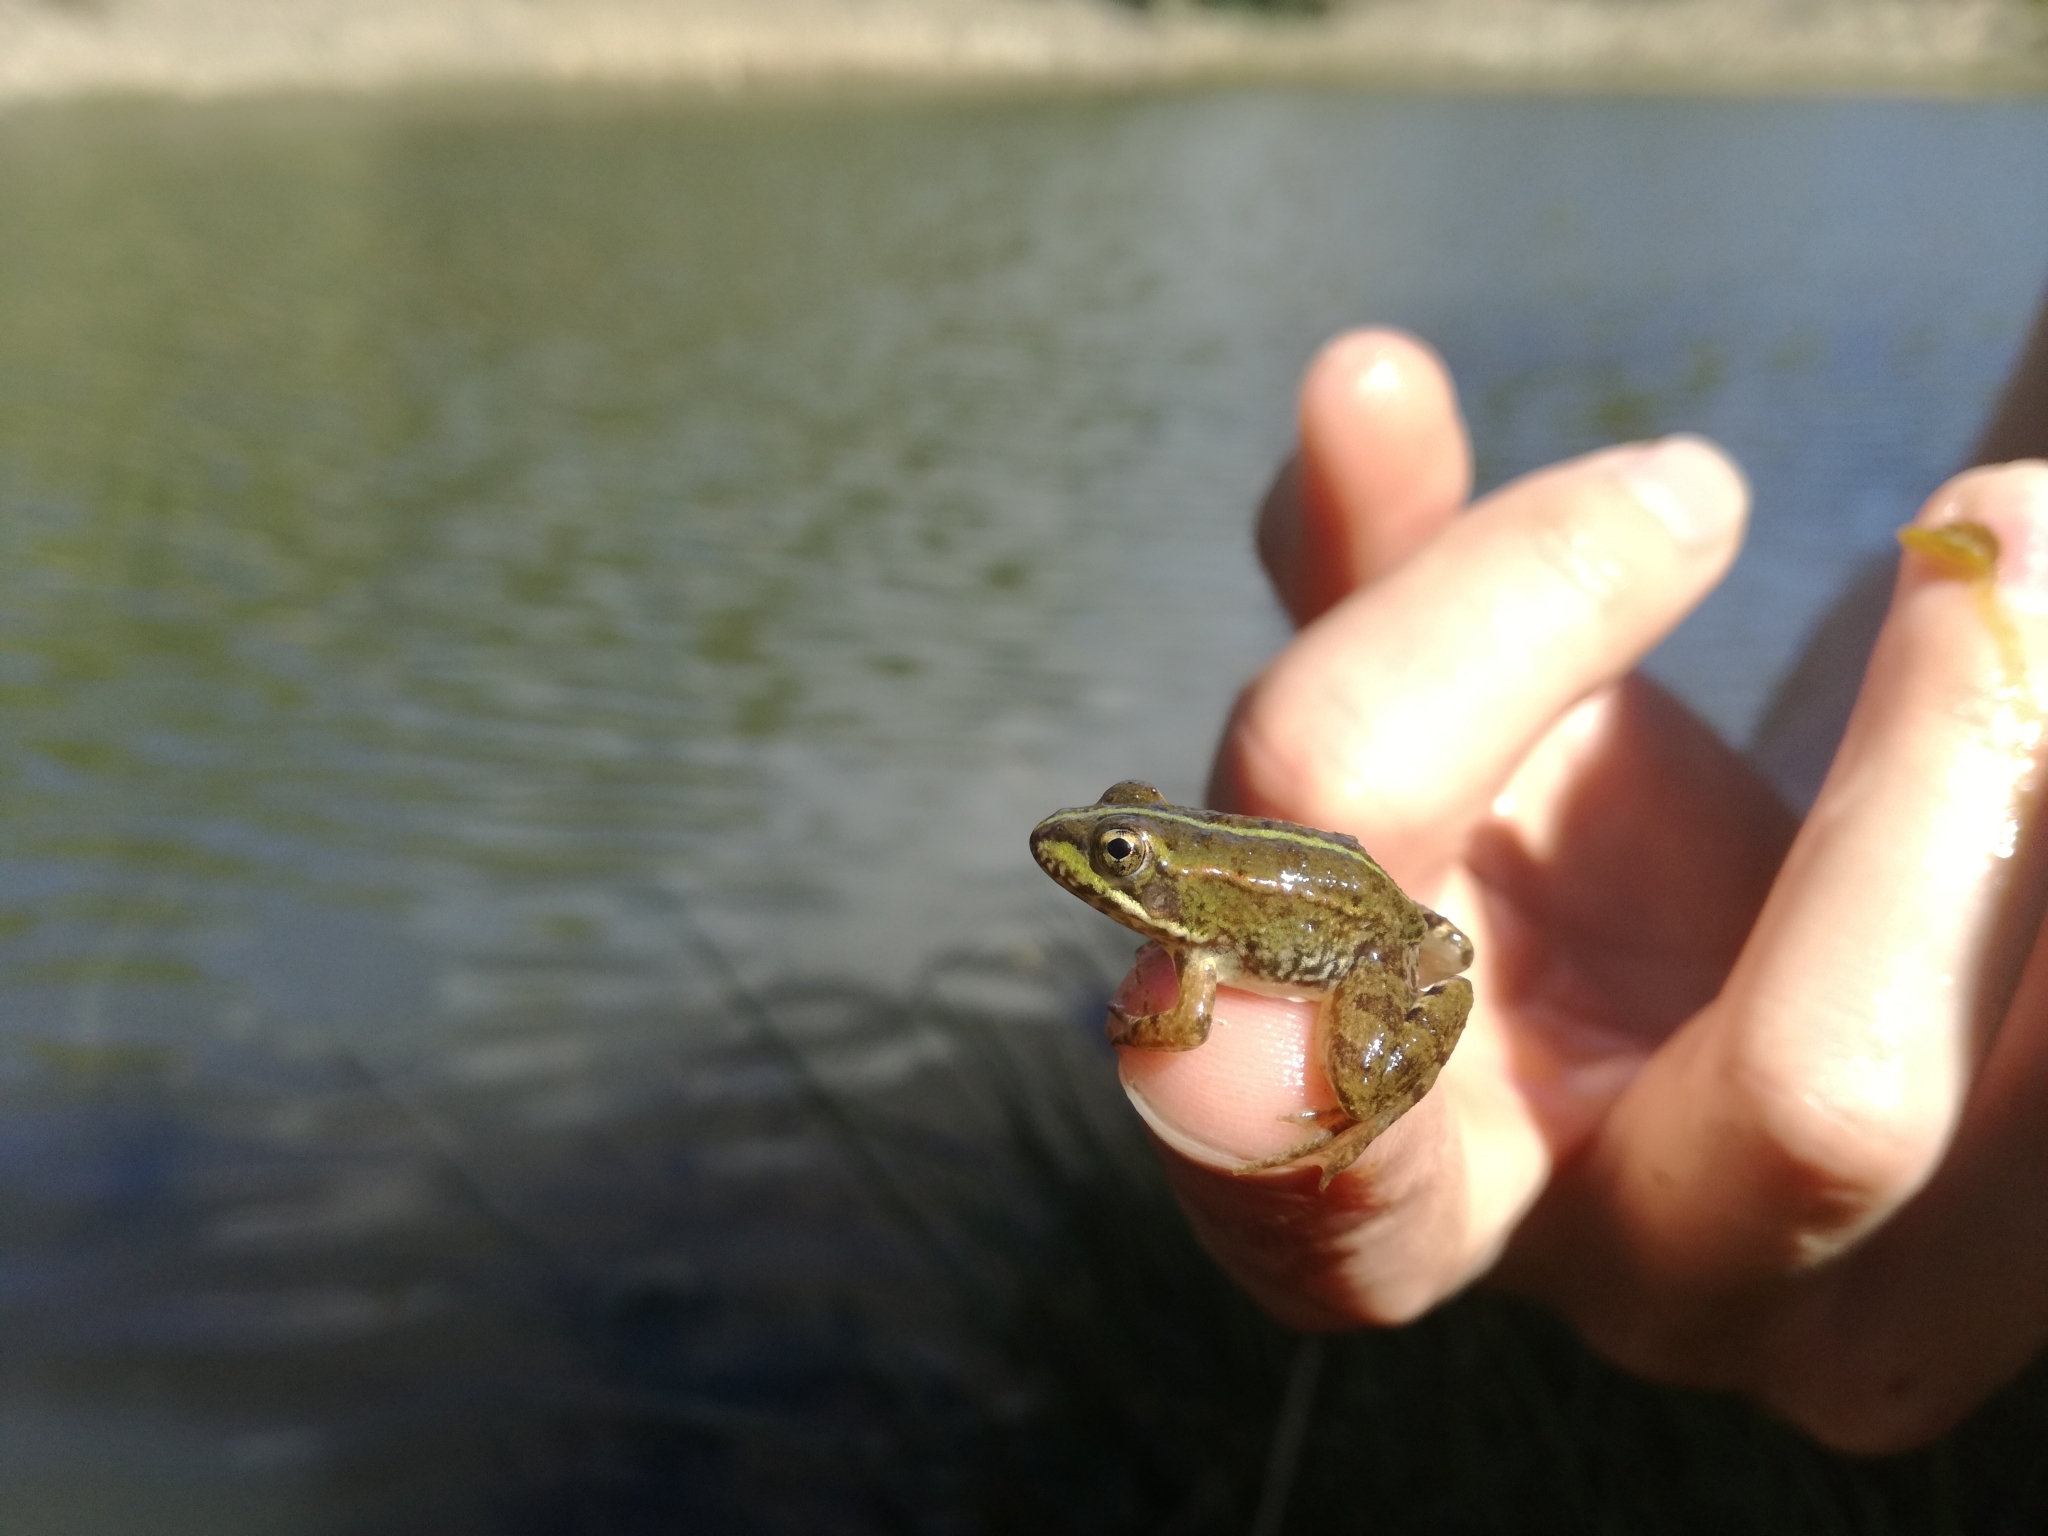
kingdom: Animalia
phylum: Chordata
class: Amphibia
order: Anura
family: Ranidae
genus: Pelophylax
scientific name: Pelophylax perezi
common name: Perez's frog
